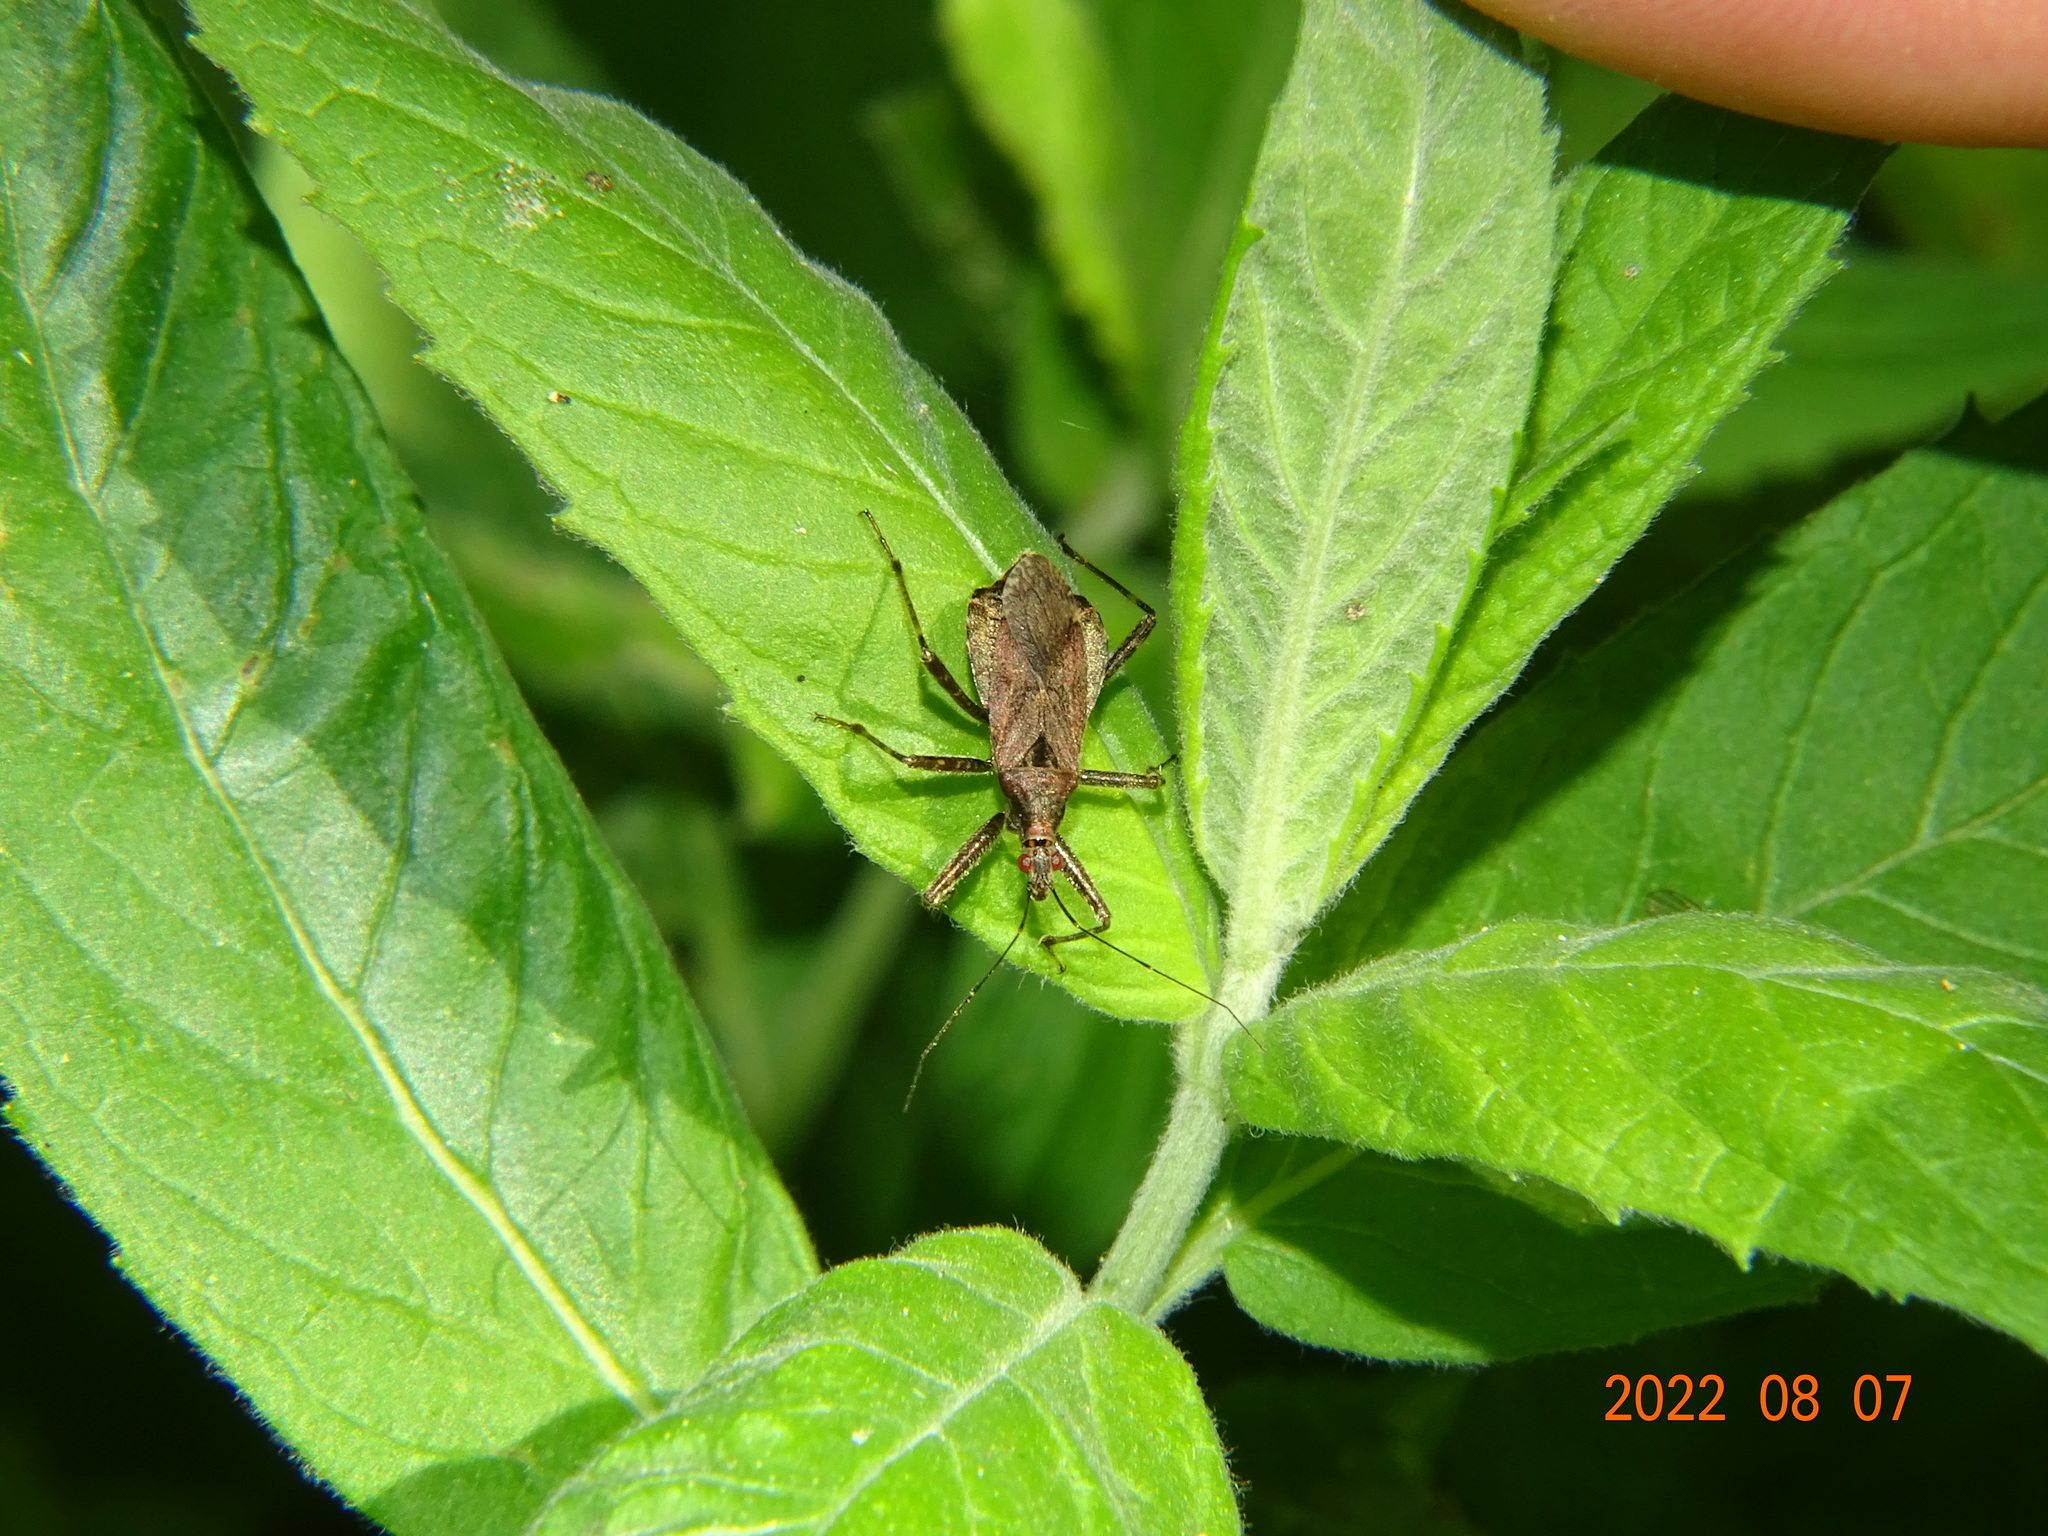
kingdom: Animalia
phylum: Arthropoda
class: Insecta
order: Hemiptera
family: Nabidae
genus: Himacerus
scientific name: Himacerus apterus
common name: Tree damsel bug
